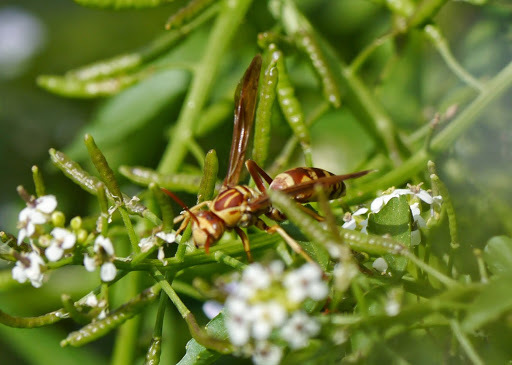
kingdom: Animalia
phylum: Arthropoda
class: Insecta
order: Hymenoptera
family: Eumenidae
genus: Polistes
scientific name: Polistes apachus
